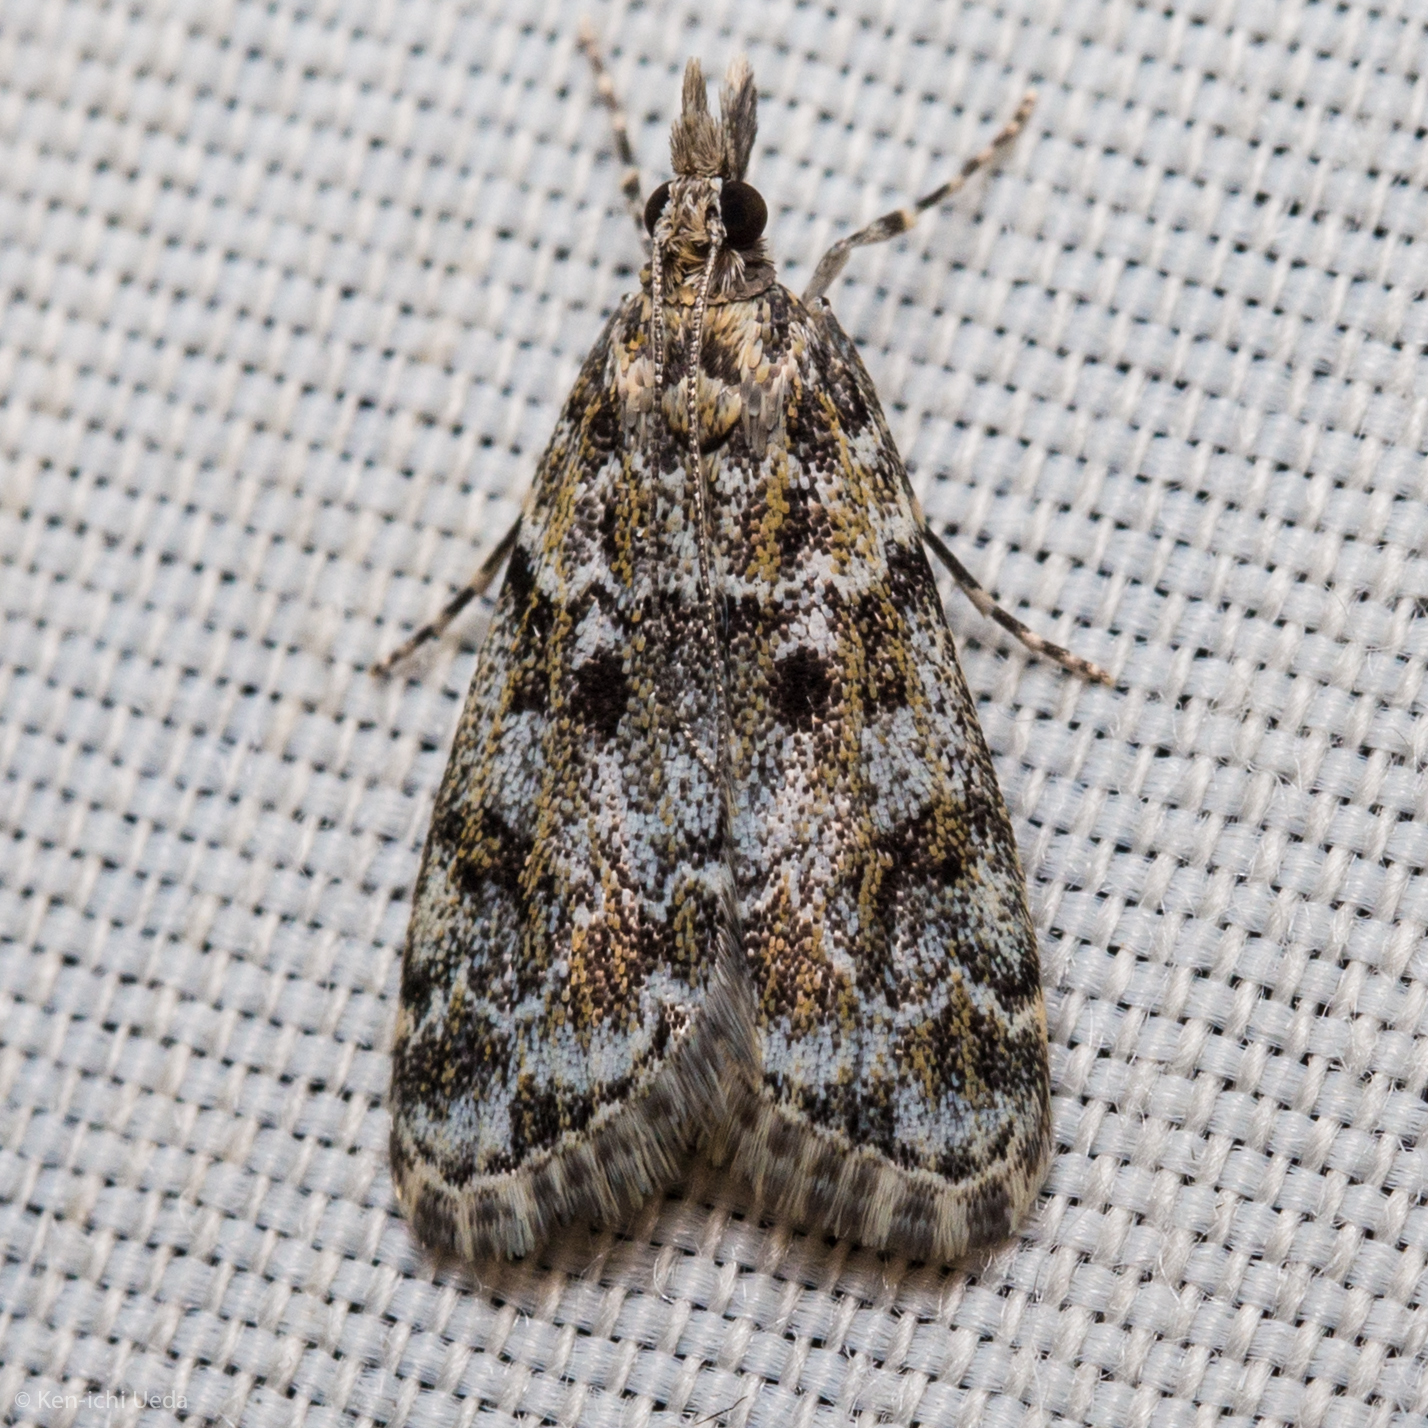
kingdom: Animalia
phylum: Arthropoda
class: Insecta
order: Lepidoptera
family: Crambidae
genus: Eudonia
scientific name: Eudonia echo
